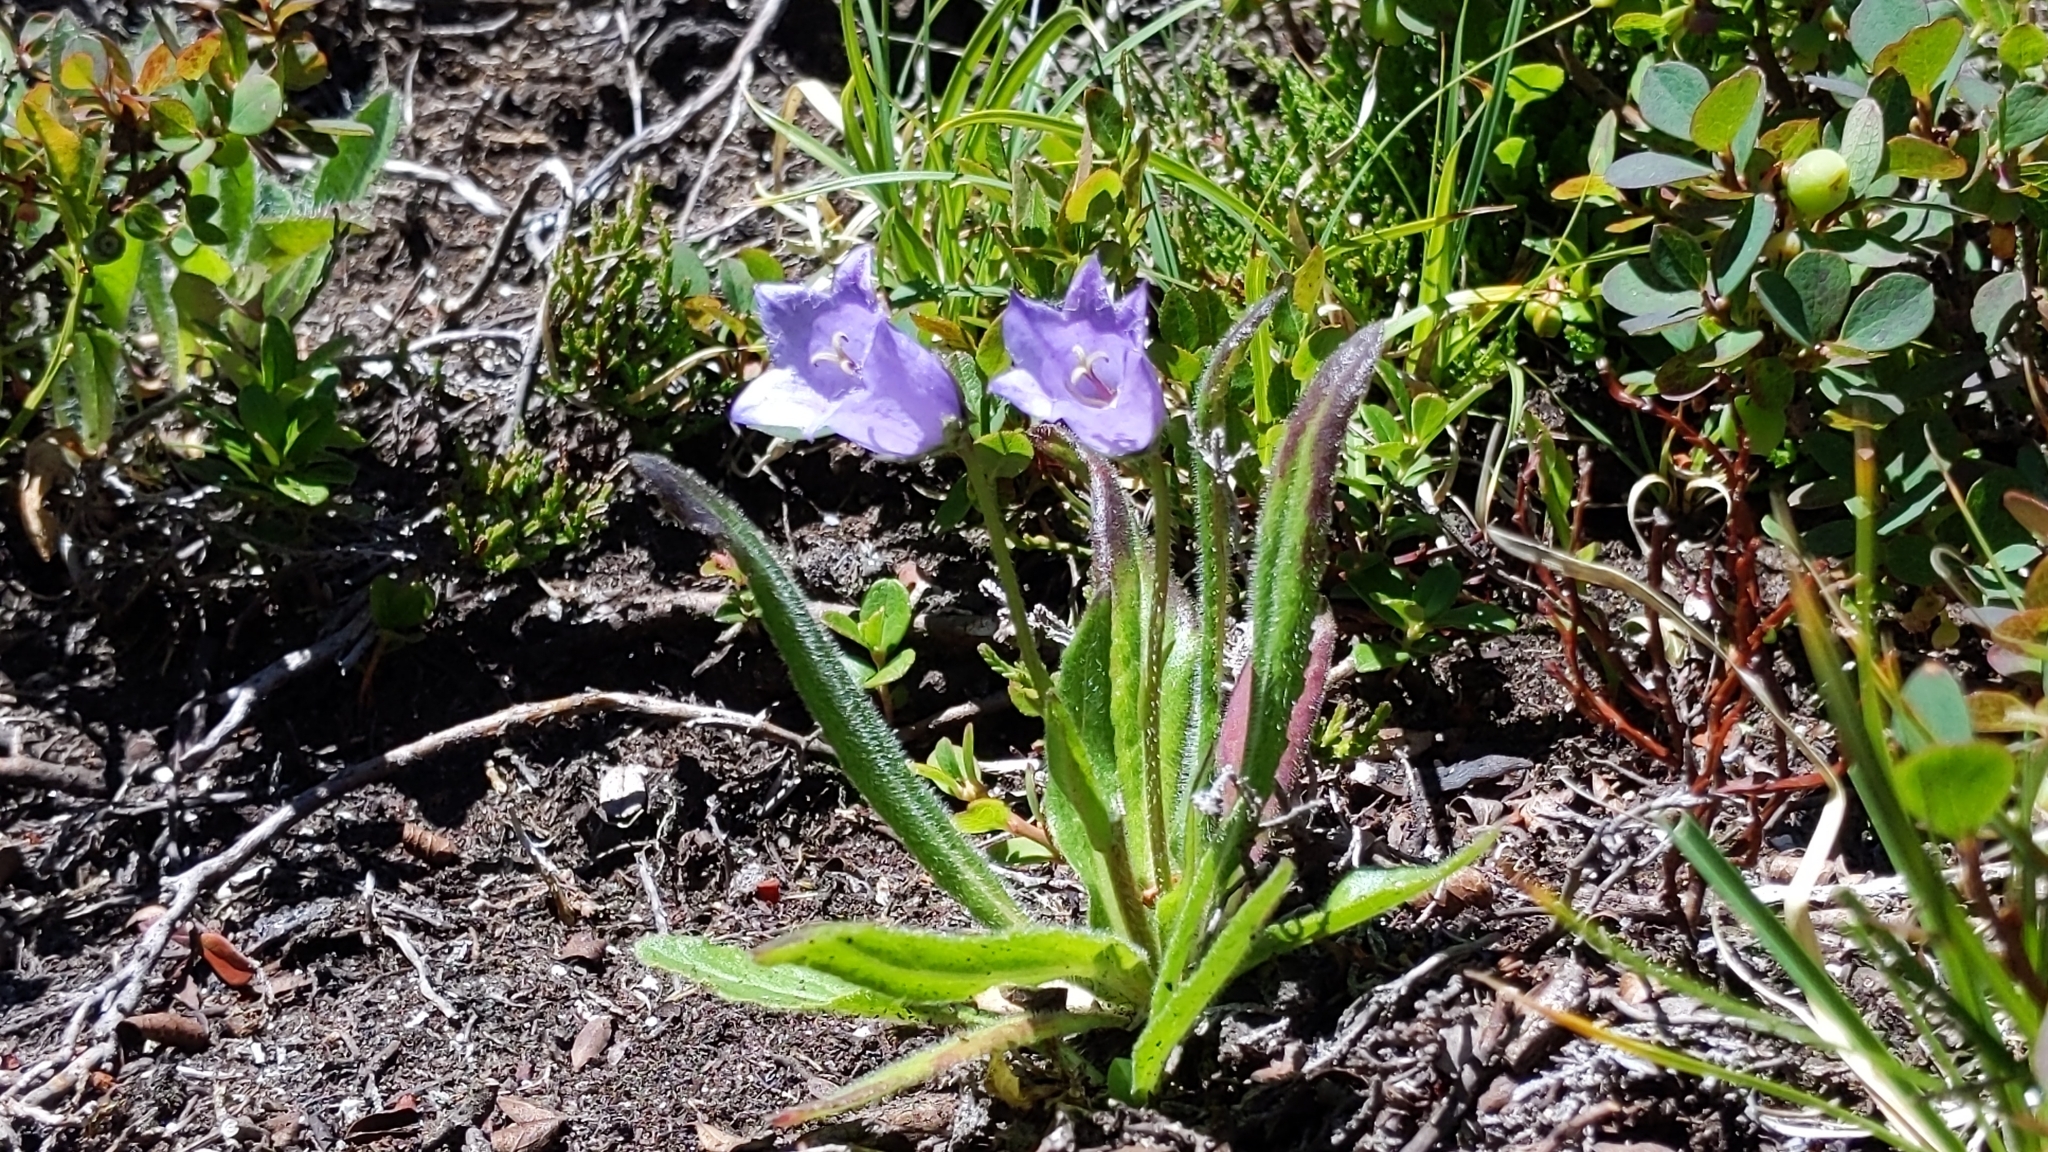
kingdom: Plantae
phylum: Tracheophyta
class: Magnoliopsida
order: Asterales
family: Campanulaceae
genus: Campanula
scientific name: Campanula barbata
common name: Bearded bellflower
